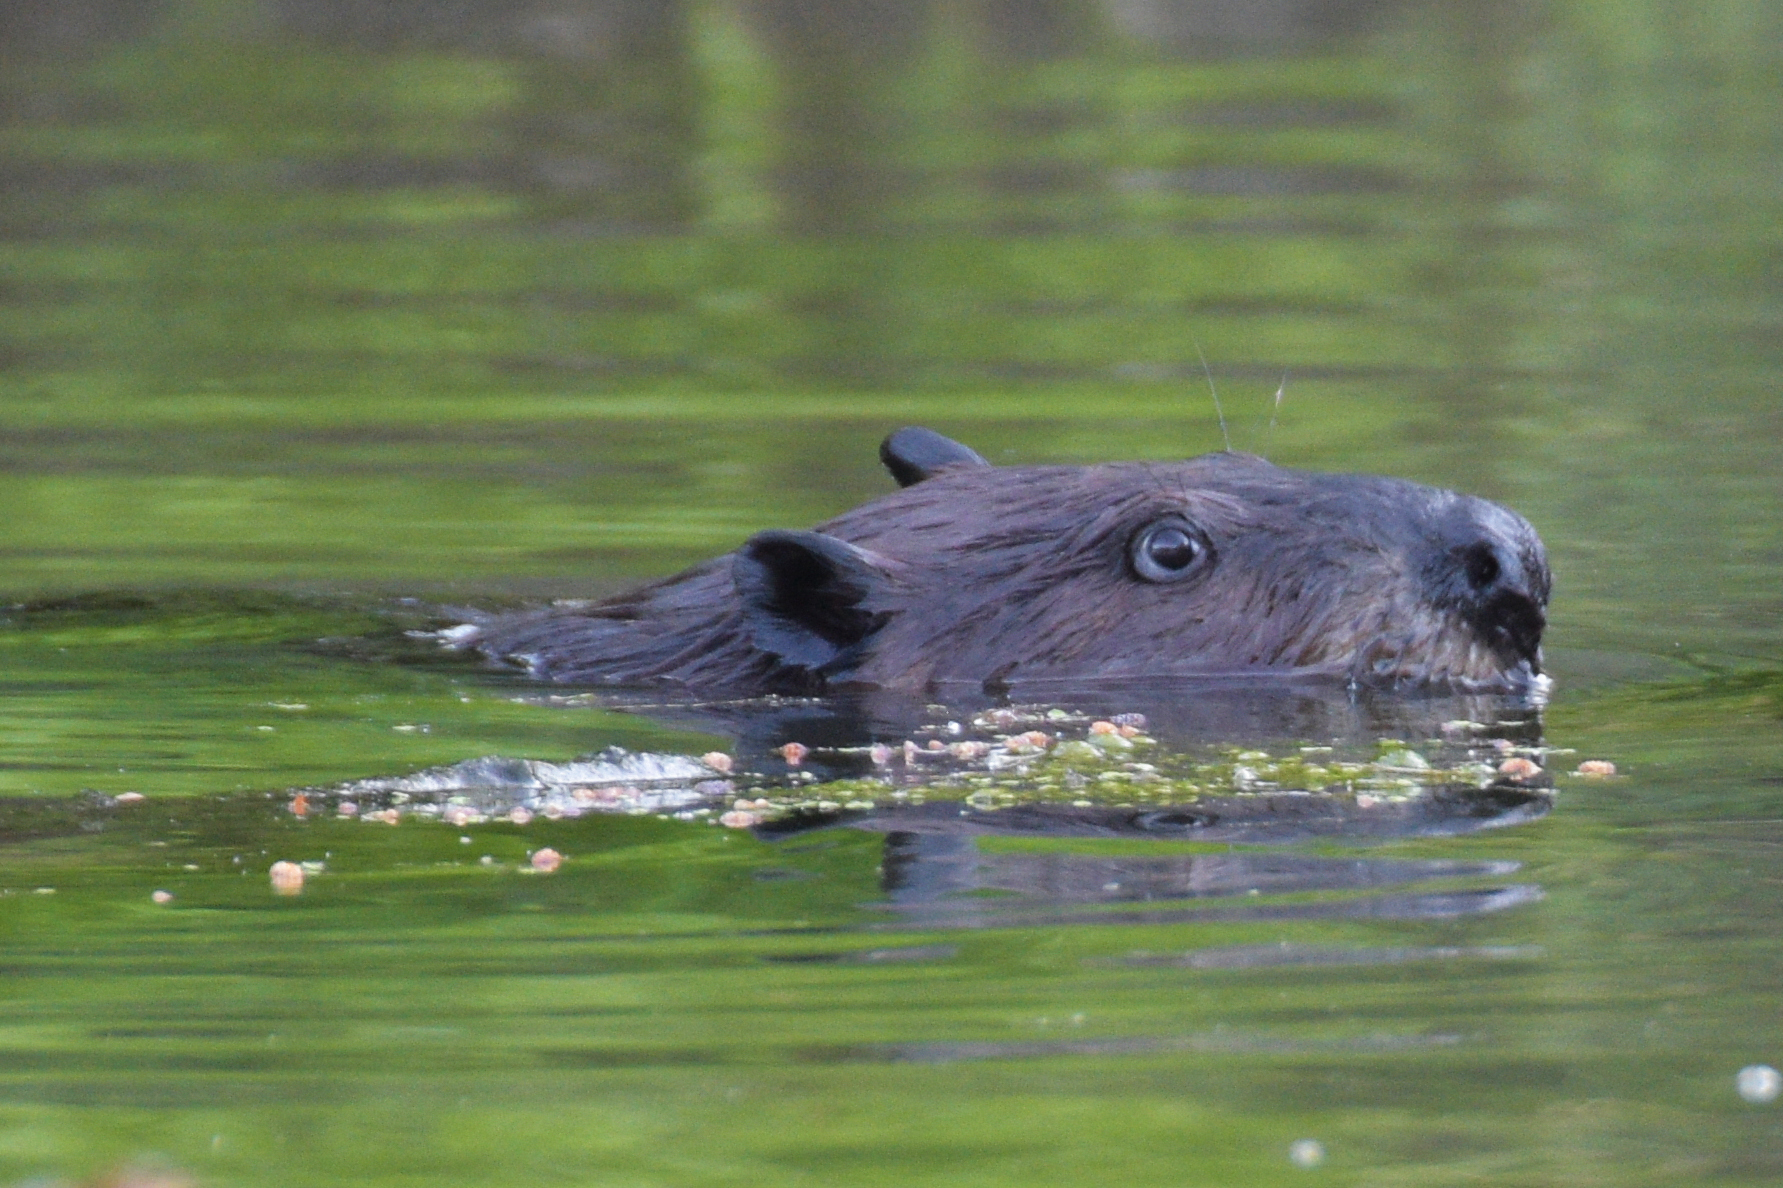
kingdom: Animalia
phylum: Chordata
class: Mammalia
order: Rodentia
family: Castoridae
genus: Castor
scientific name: Castor canadensis
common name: American beaver
